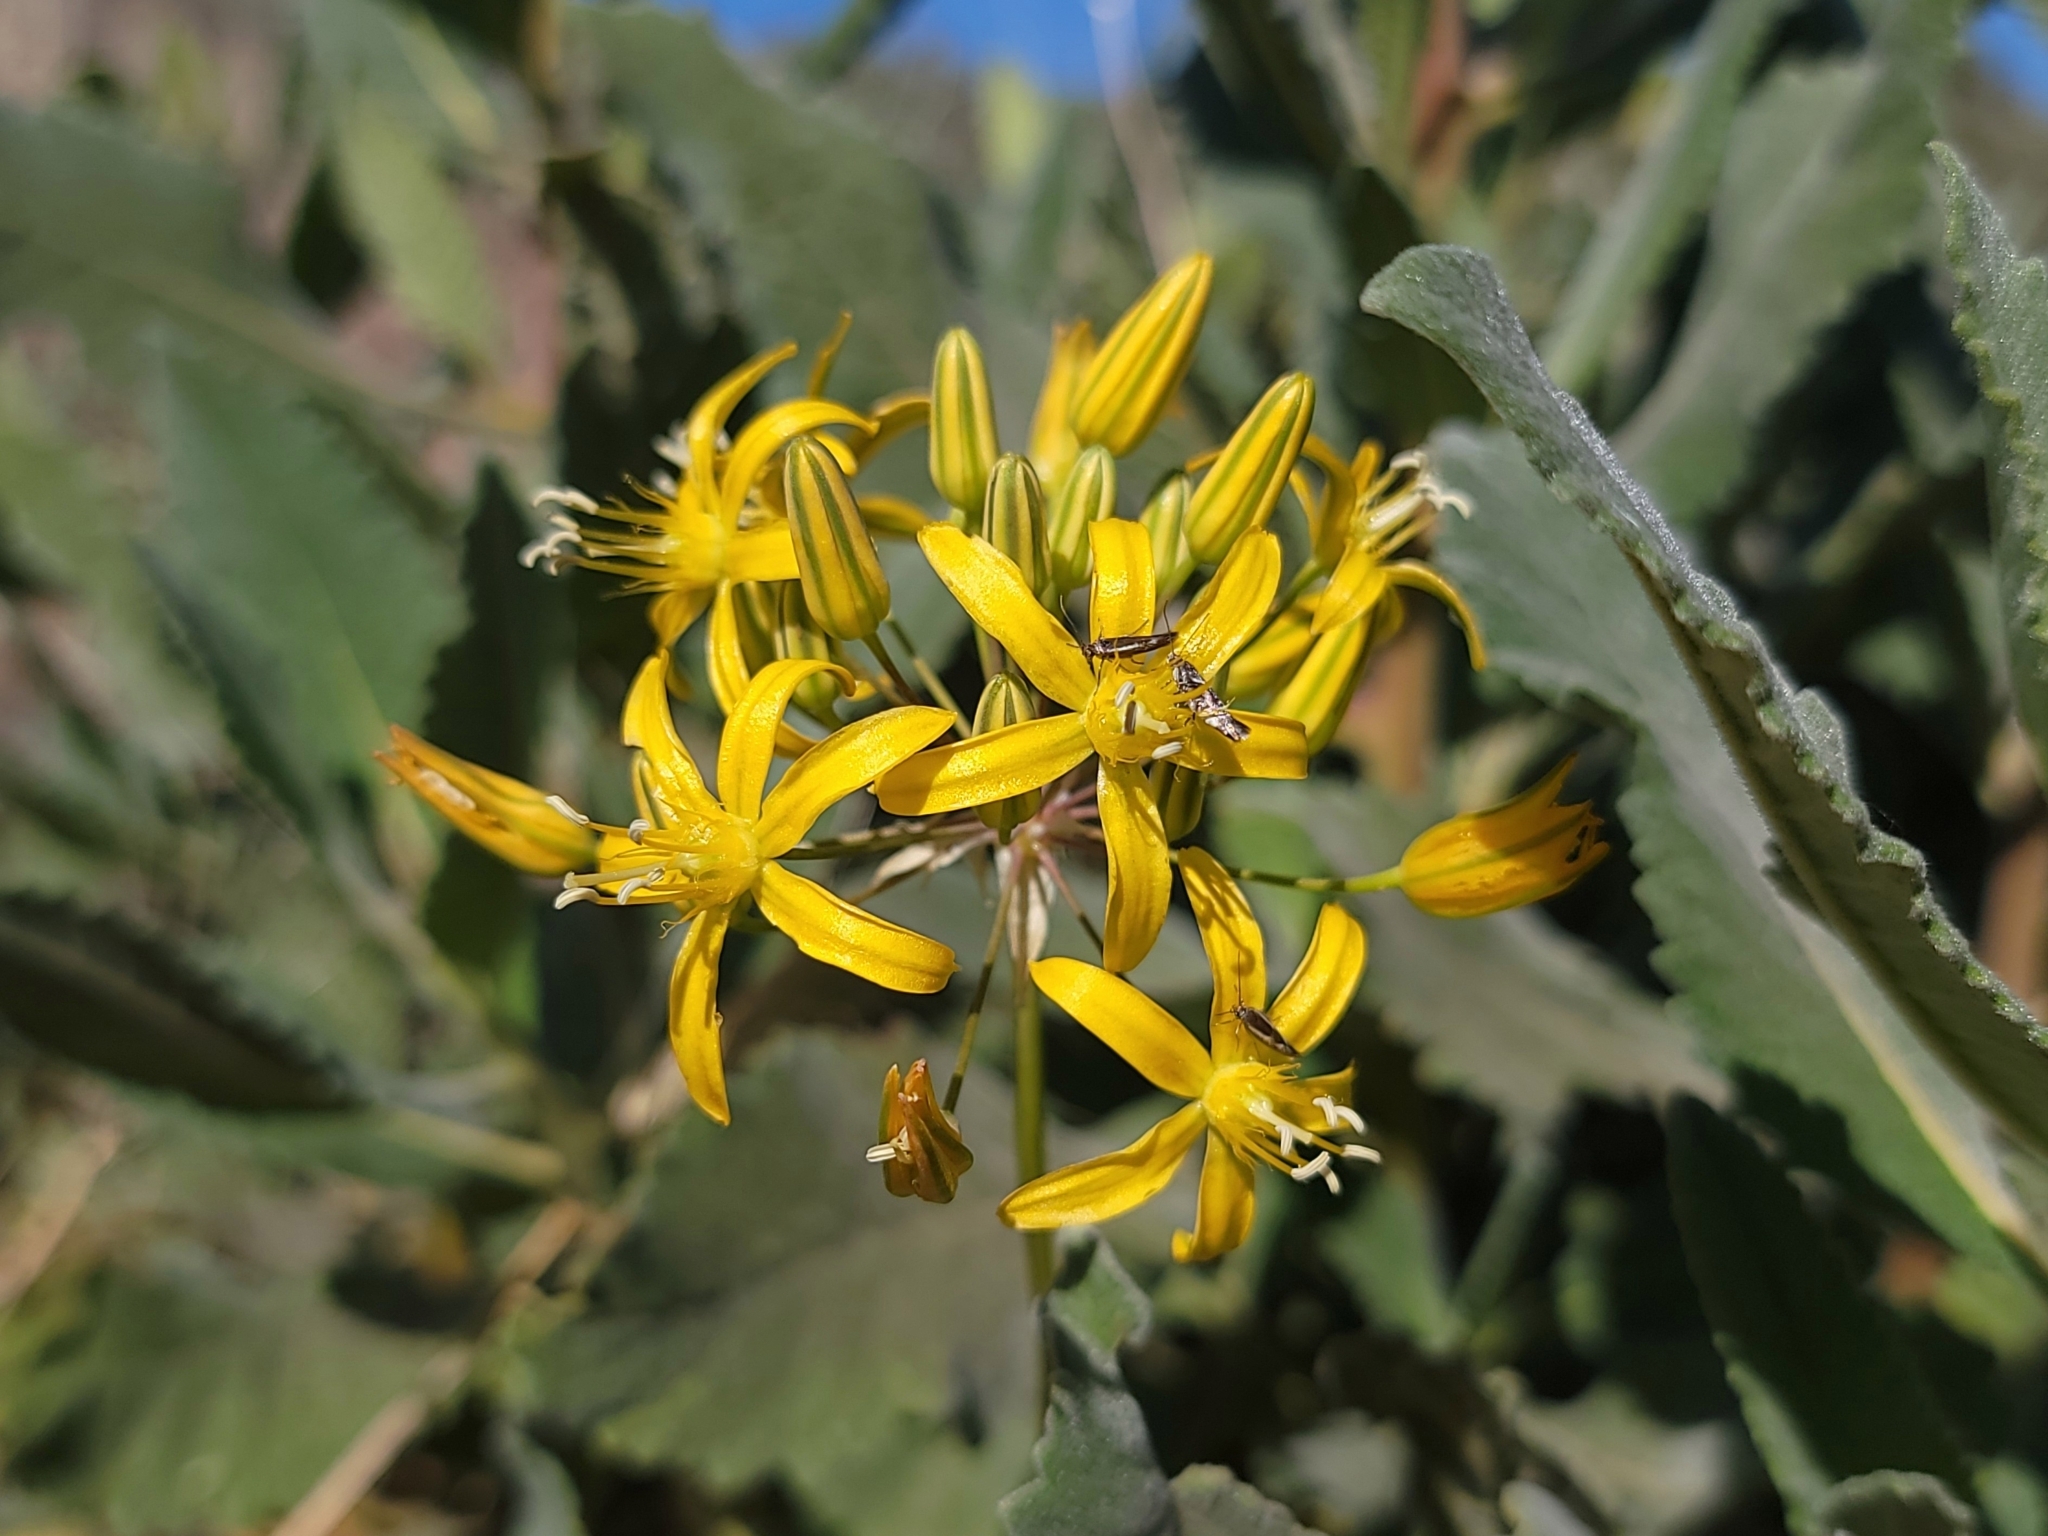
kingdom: Plantae
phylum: Tracheophyta
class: Liliopsida
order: Asparagales
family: Asparagaceae
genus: Bloomeria
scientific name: Bloomeria crocea
